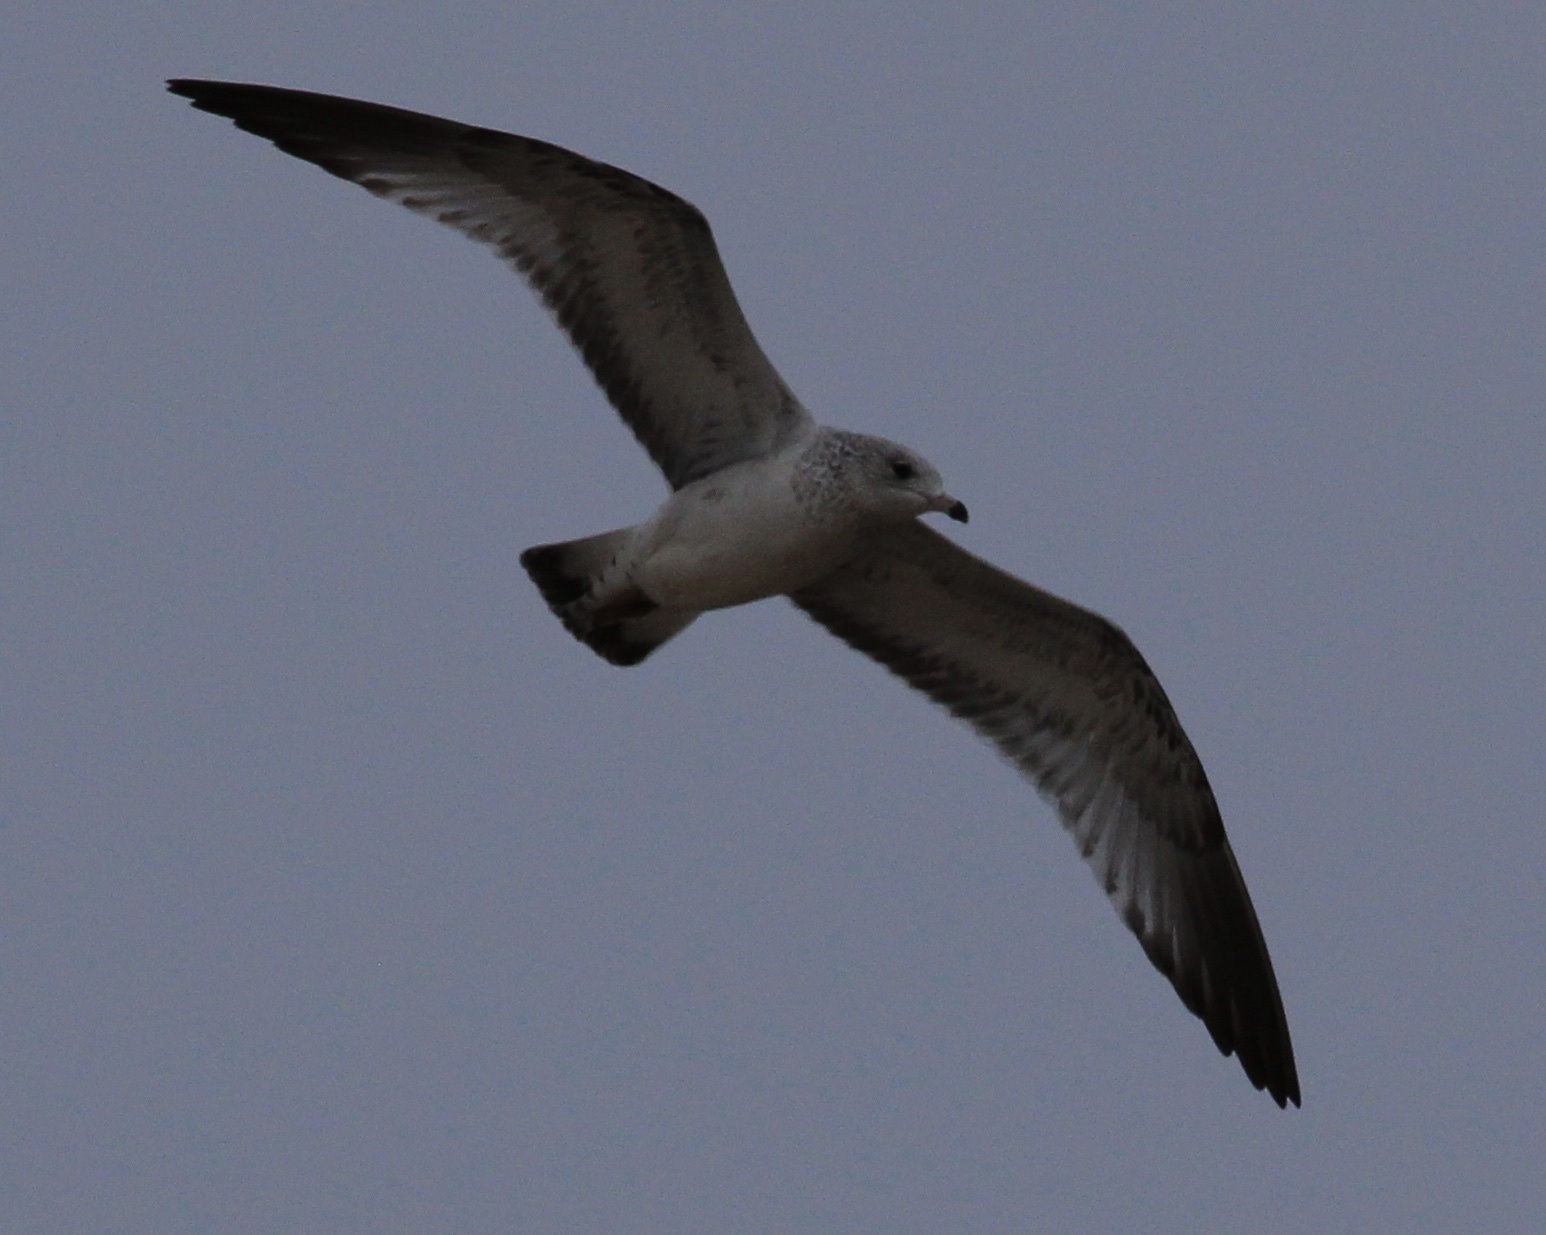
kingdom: Animalia
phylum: Chordata
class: Aves
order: Charadriiformes
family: Laridae
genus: Larus
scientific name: Larus delawarensis
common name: Ring-billed gull
